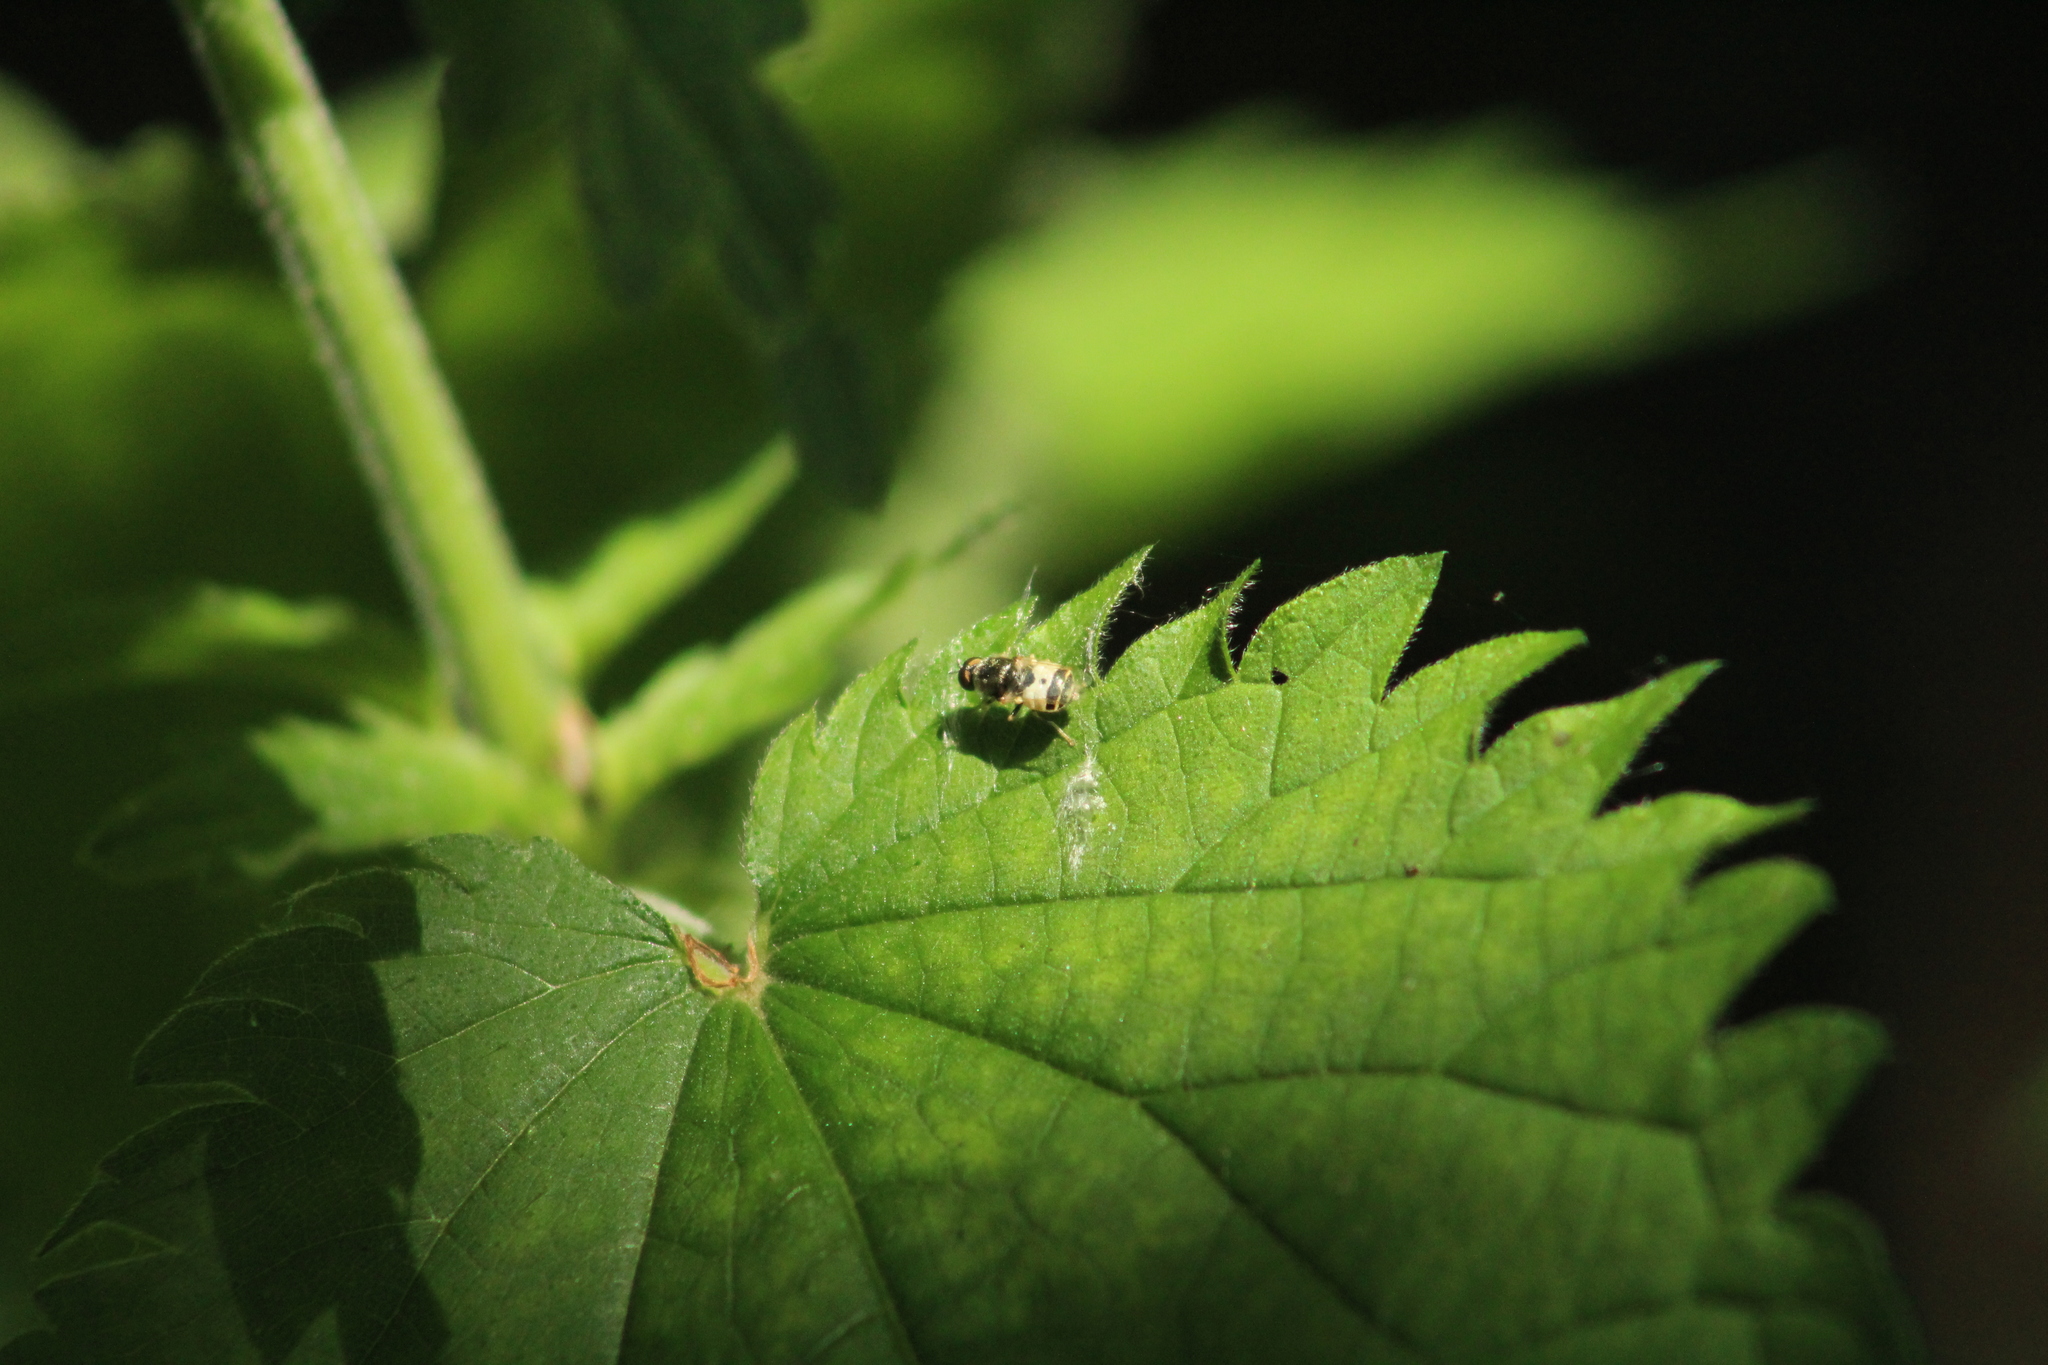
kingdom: Animalia
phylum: Arthropoda
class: Insecta
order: Diptera
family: Stratiomyidae
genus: Nemotelus
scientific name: Nemotelus notatus
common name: Flecked snout
